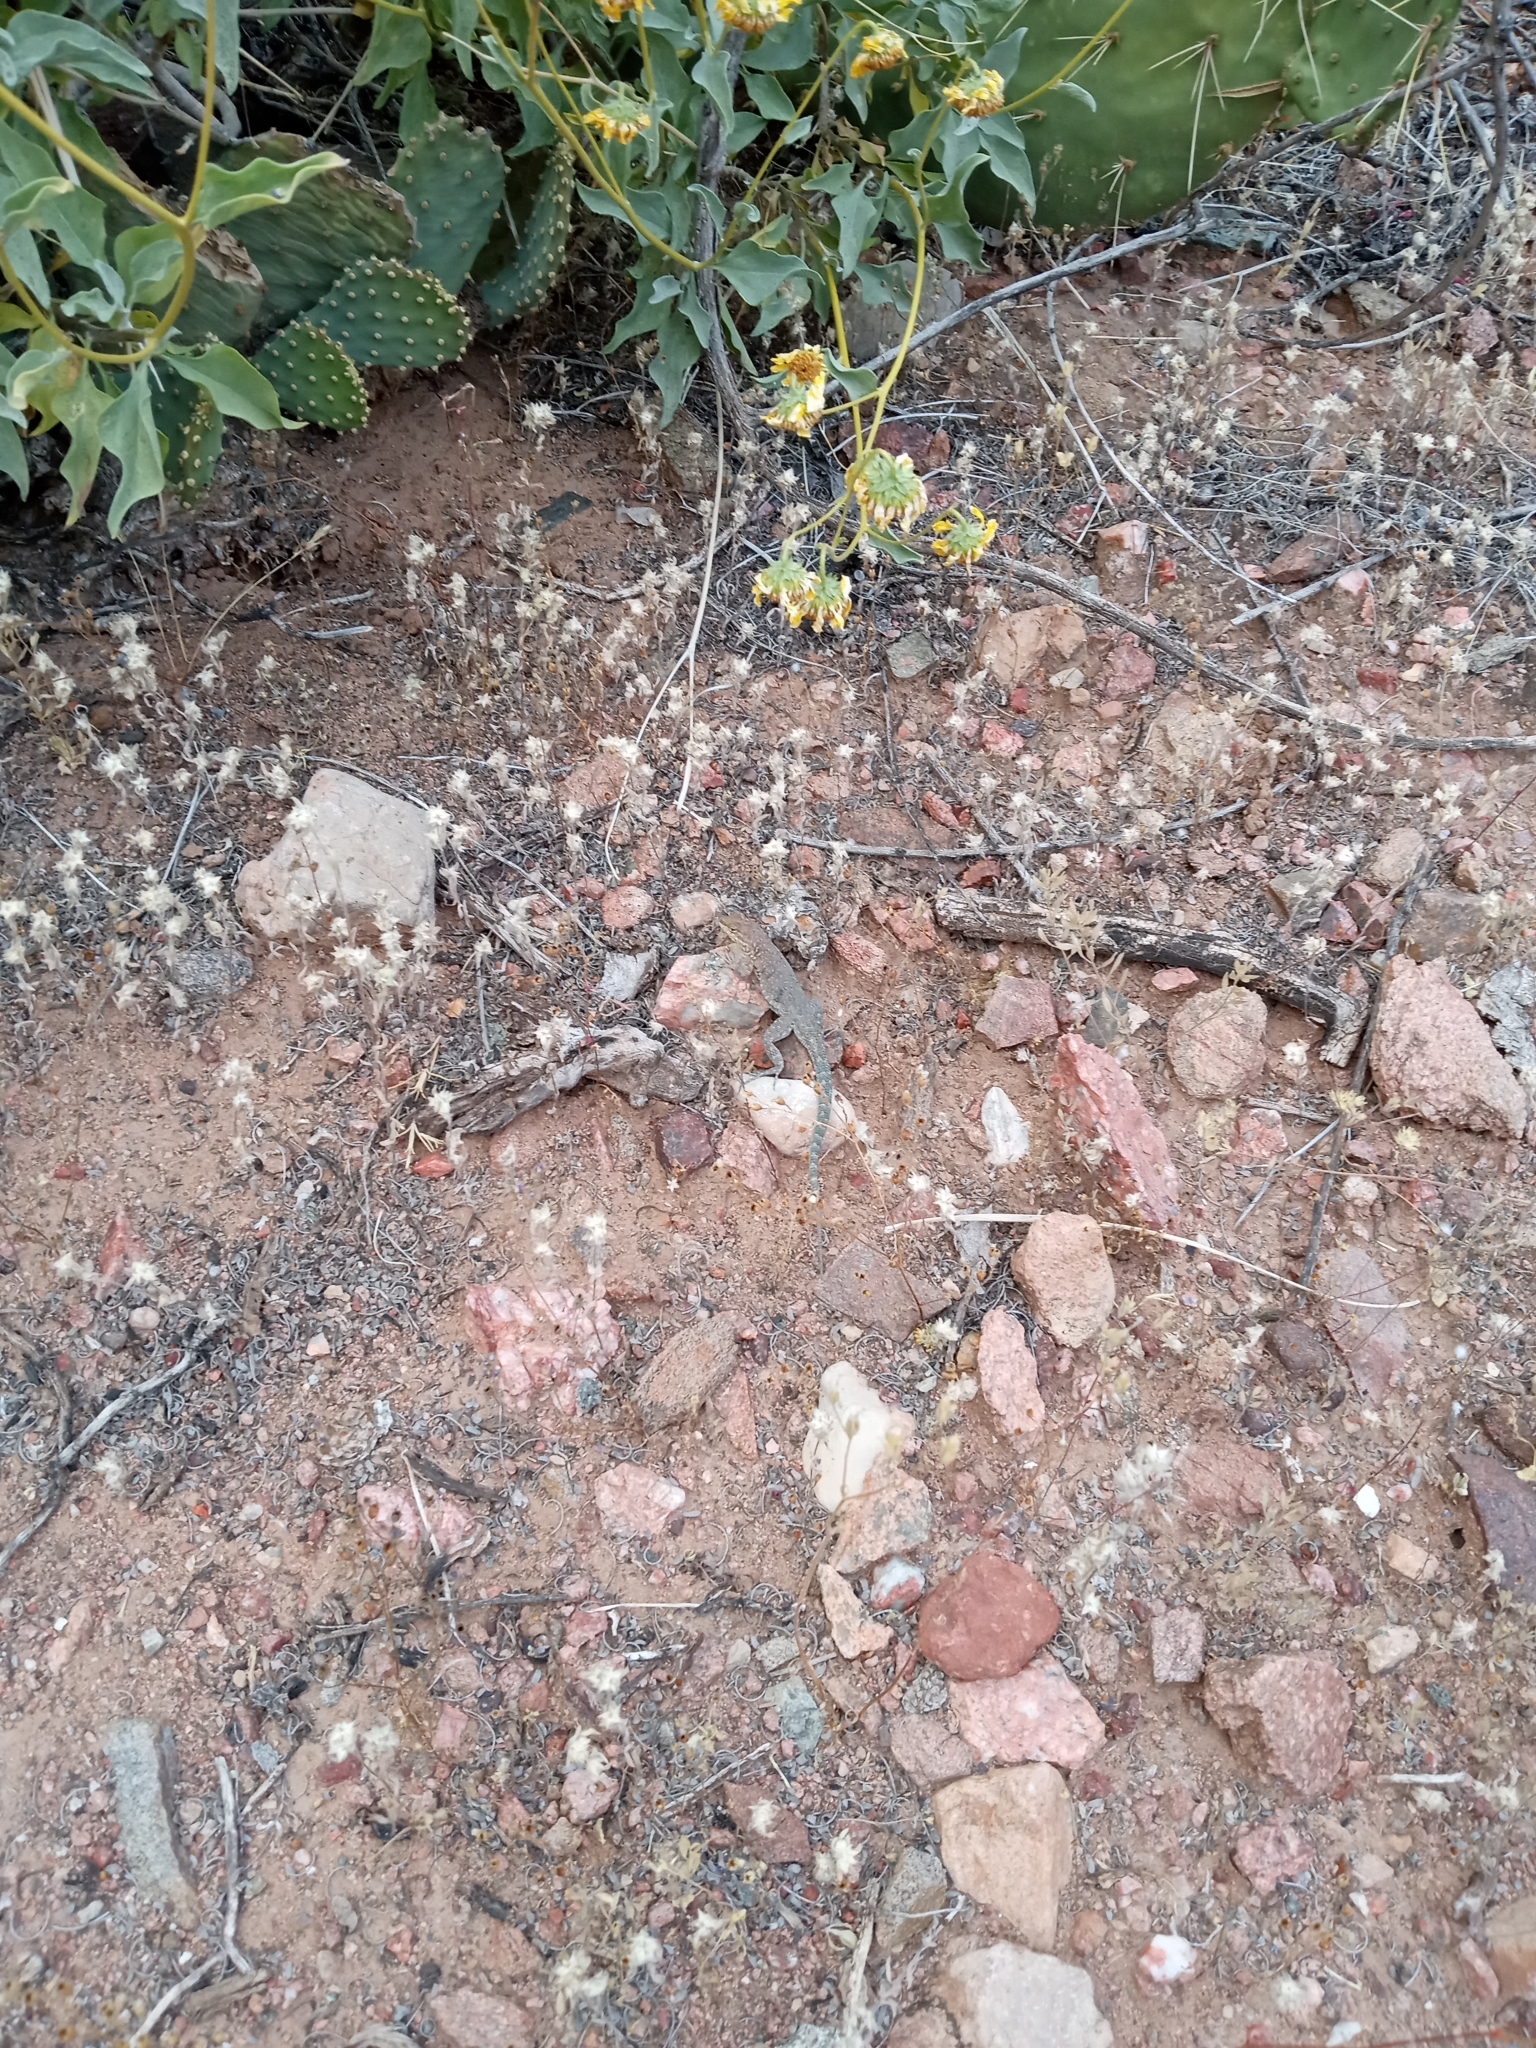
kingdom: Animalia
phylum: Chordata
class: Squamata
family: Phrynosomatidae
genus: Uta
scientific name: Uta stansburiana
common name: Side-blotched lizard
